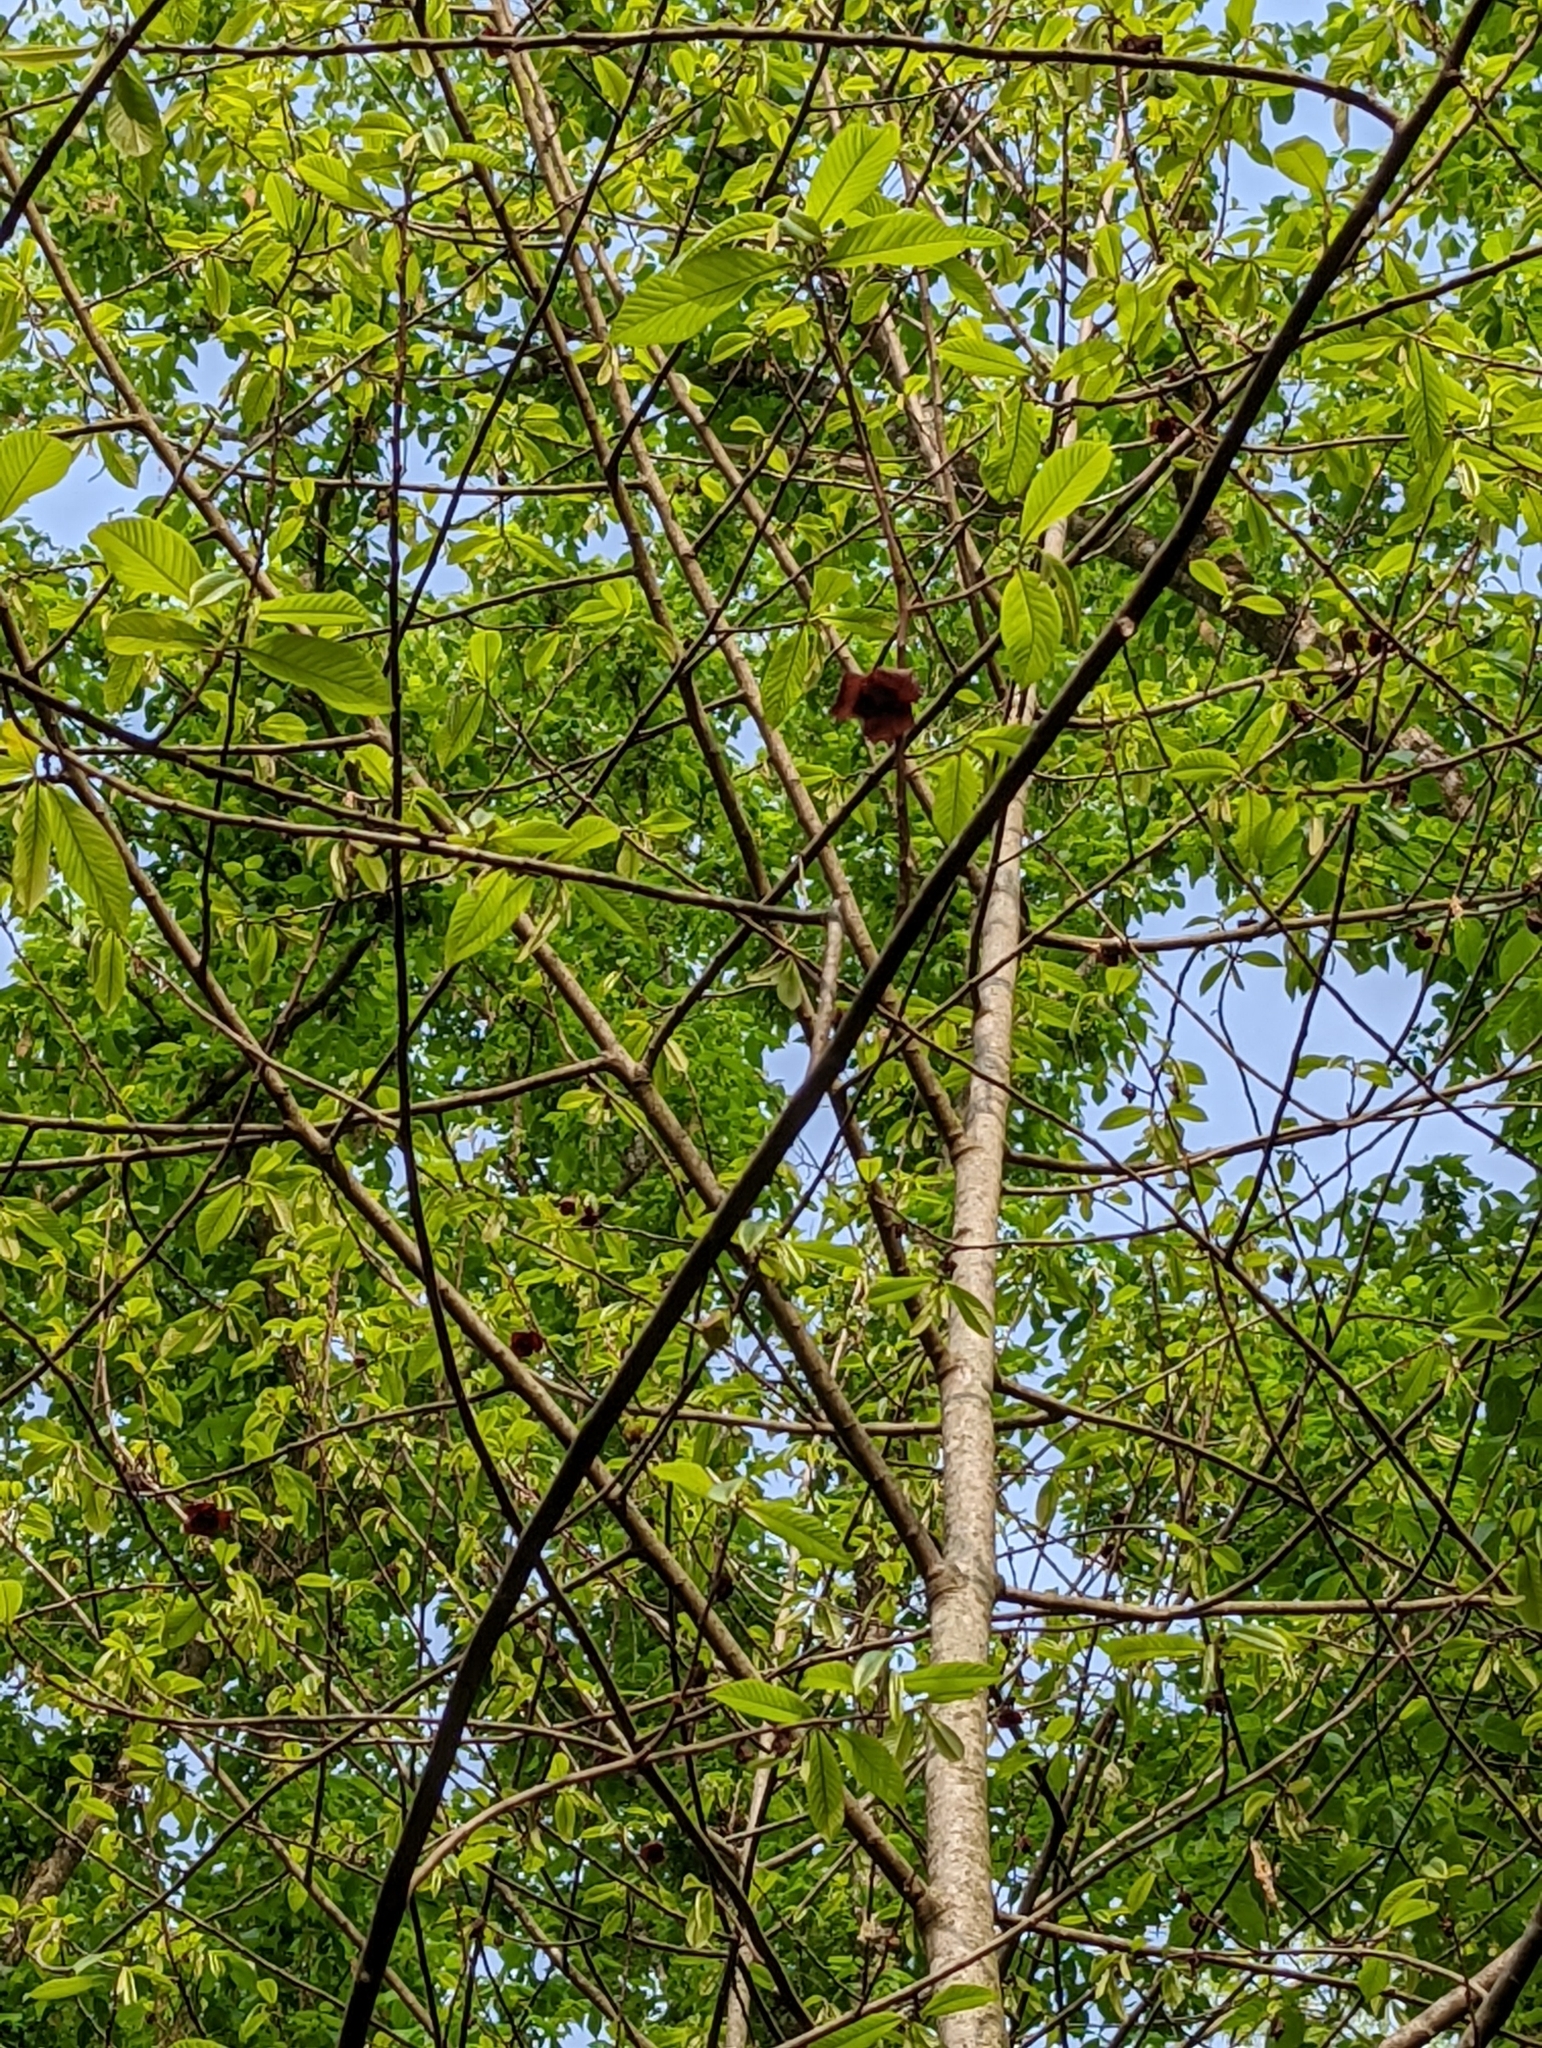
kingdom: Plantae
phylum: Tracheophyta
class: Magnoliopsida
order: Magnoliales
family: Annonaceae
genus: Asimina
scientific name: Asimina triloba
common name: Dog-banana
